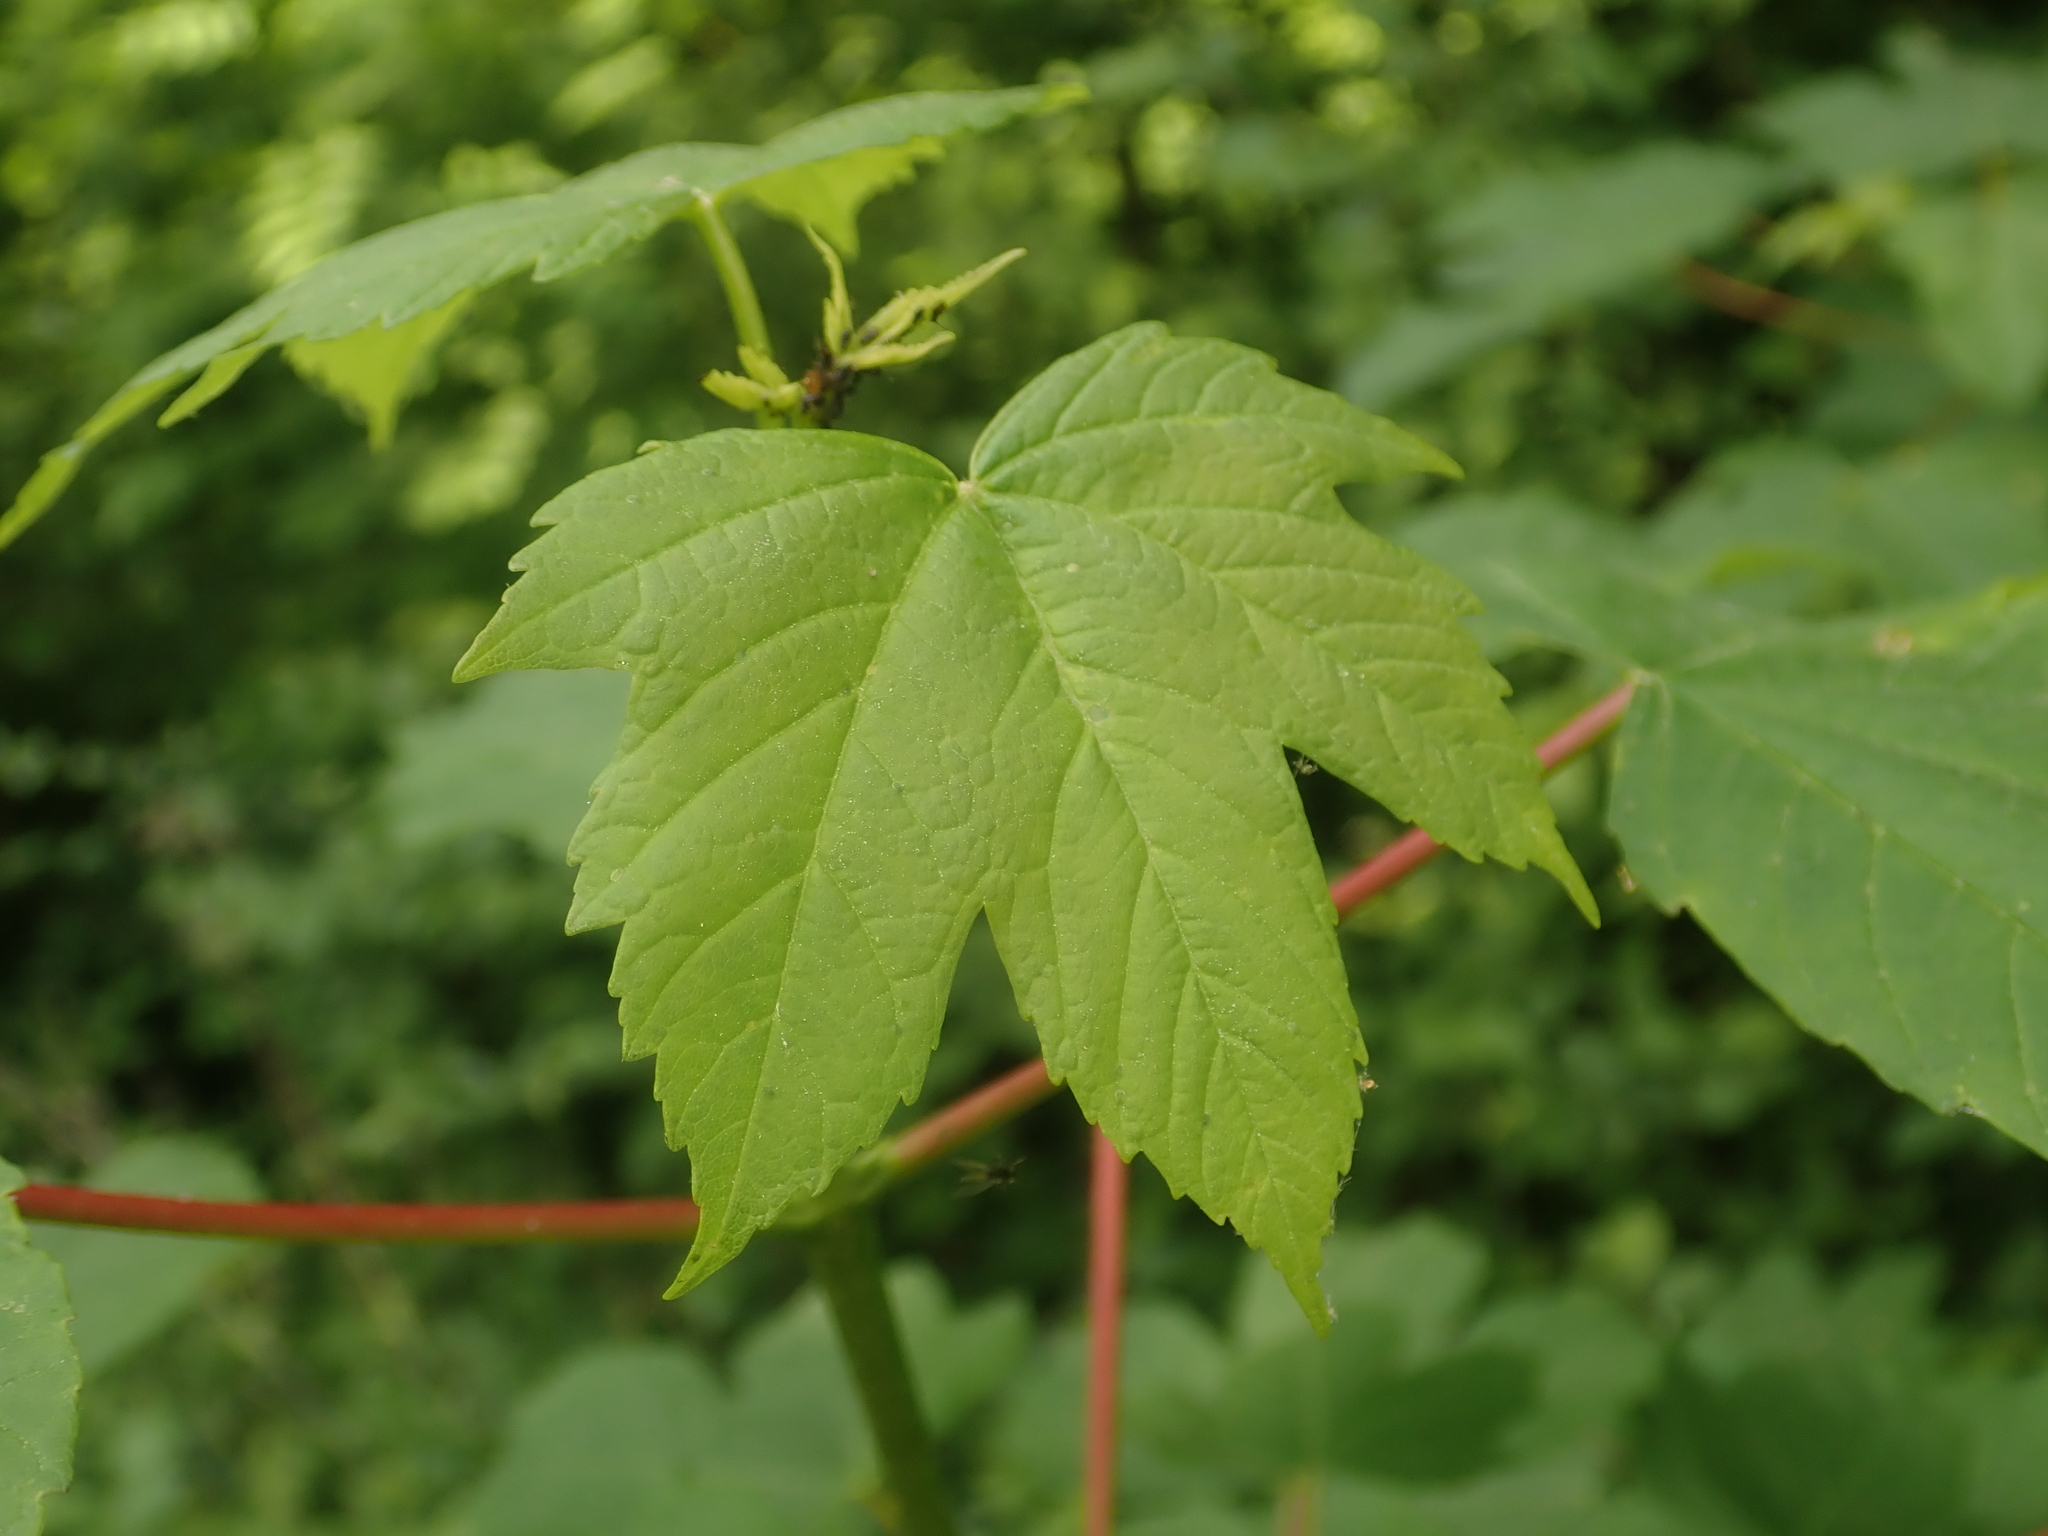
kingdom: Plantae
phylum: Tracheophyta
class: Magnoliopsida
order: Sapindales
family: Sapindaceae
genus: Acer
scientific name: Acer pseudoplatanus
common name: Sycamore
